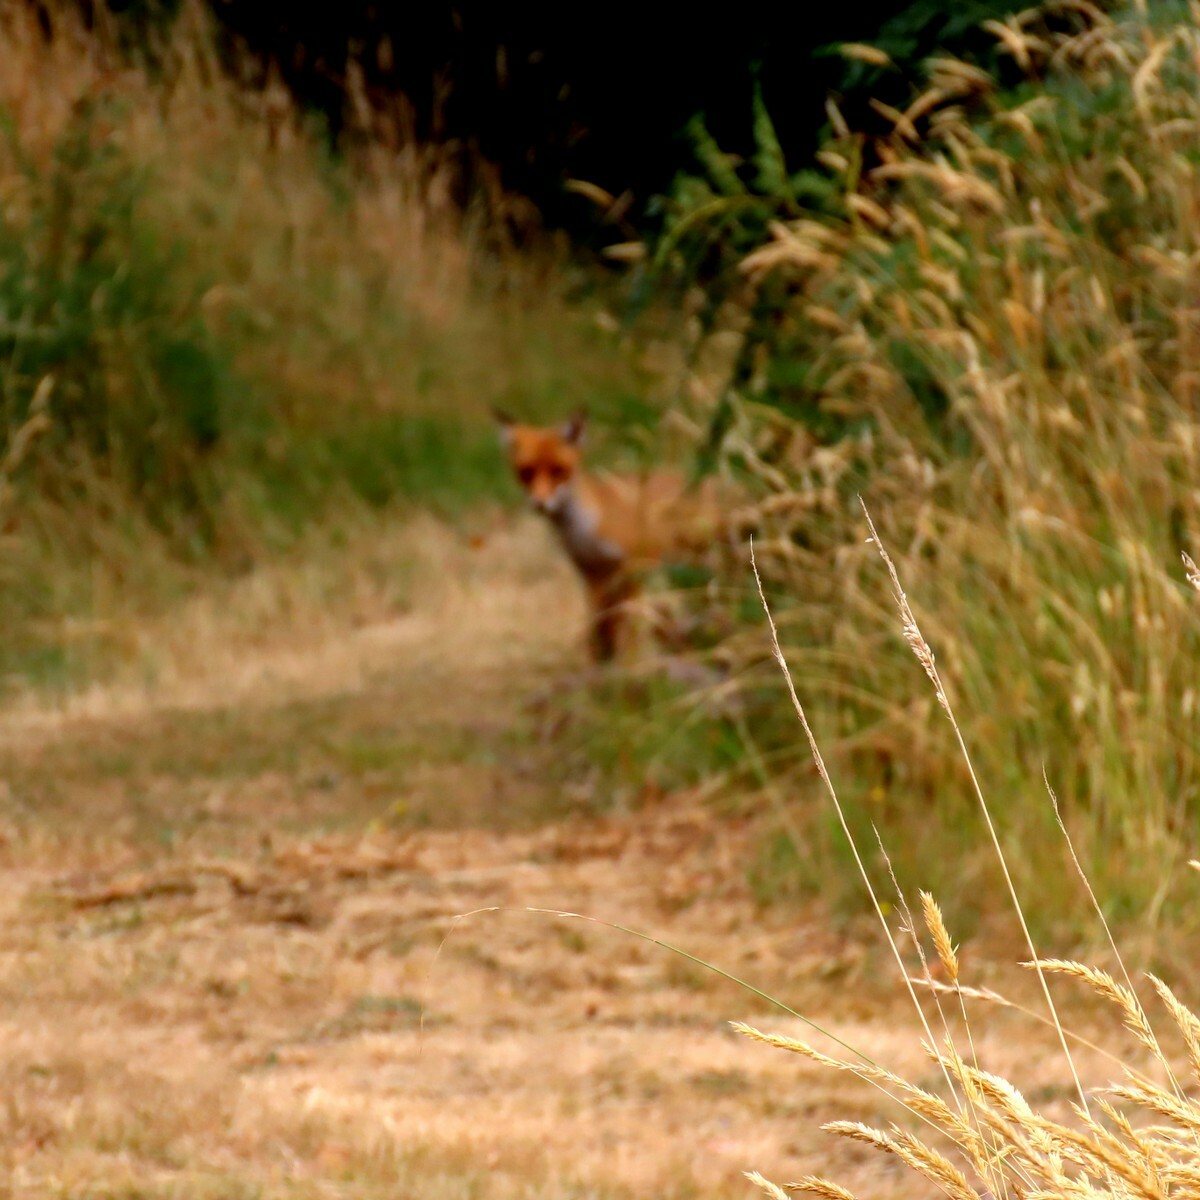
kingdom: Animalia
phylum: Chordata
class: Mammalia
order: Carnivora
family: Canidae
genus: Vulpes
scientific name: Vulpes vulpes
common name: Red fox
